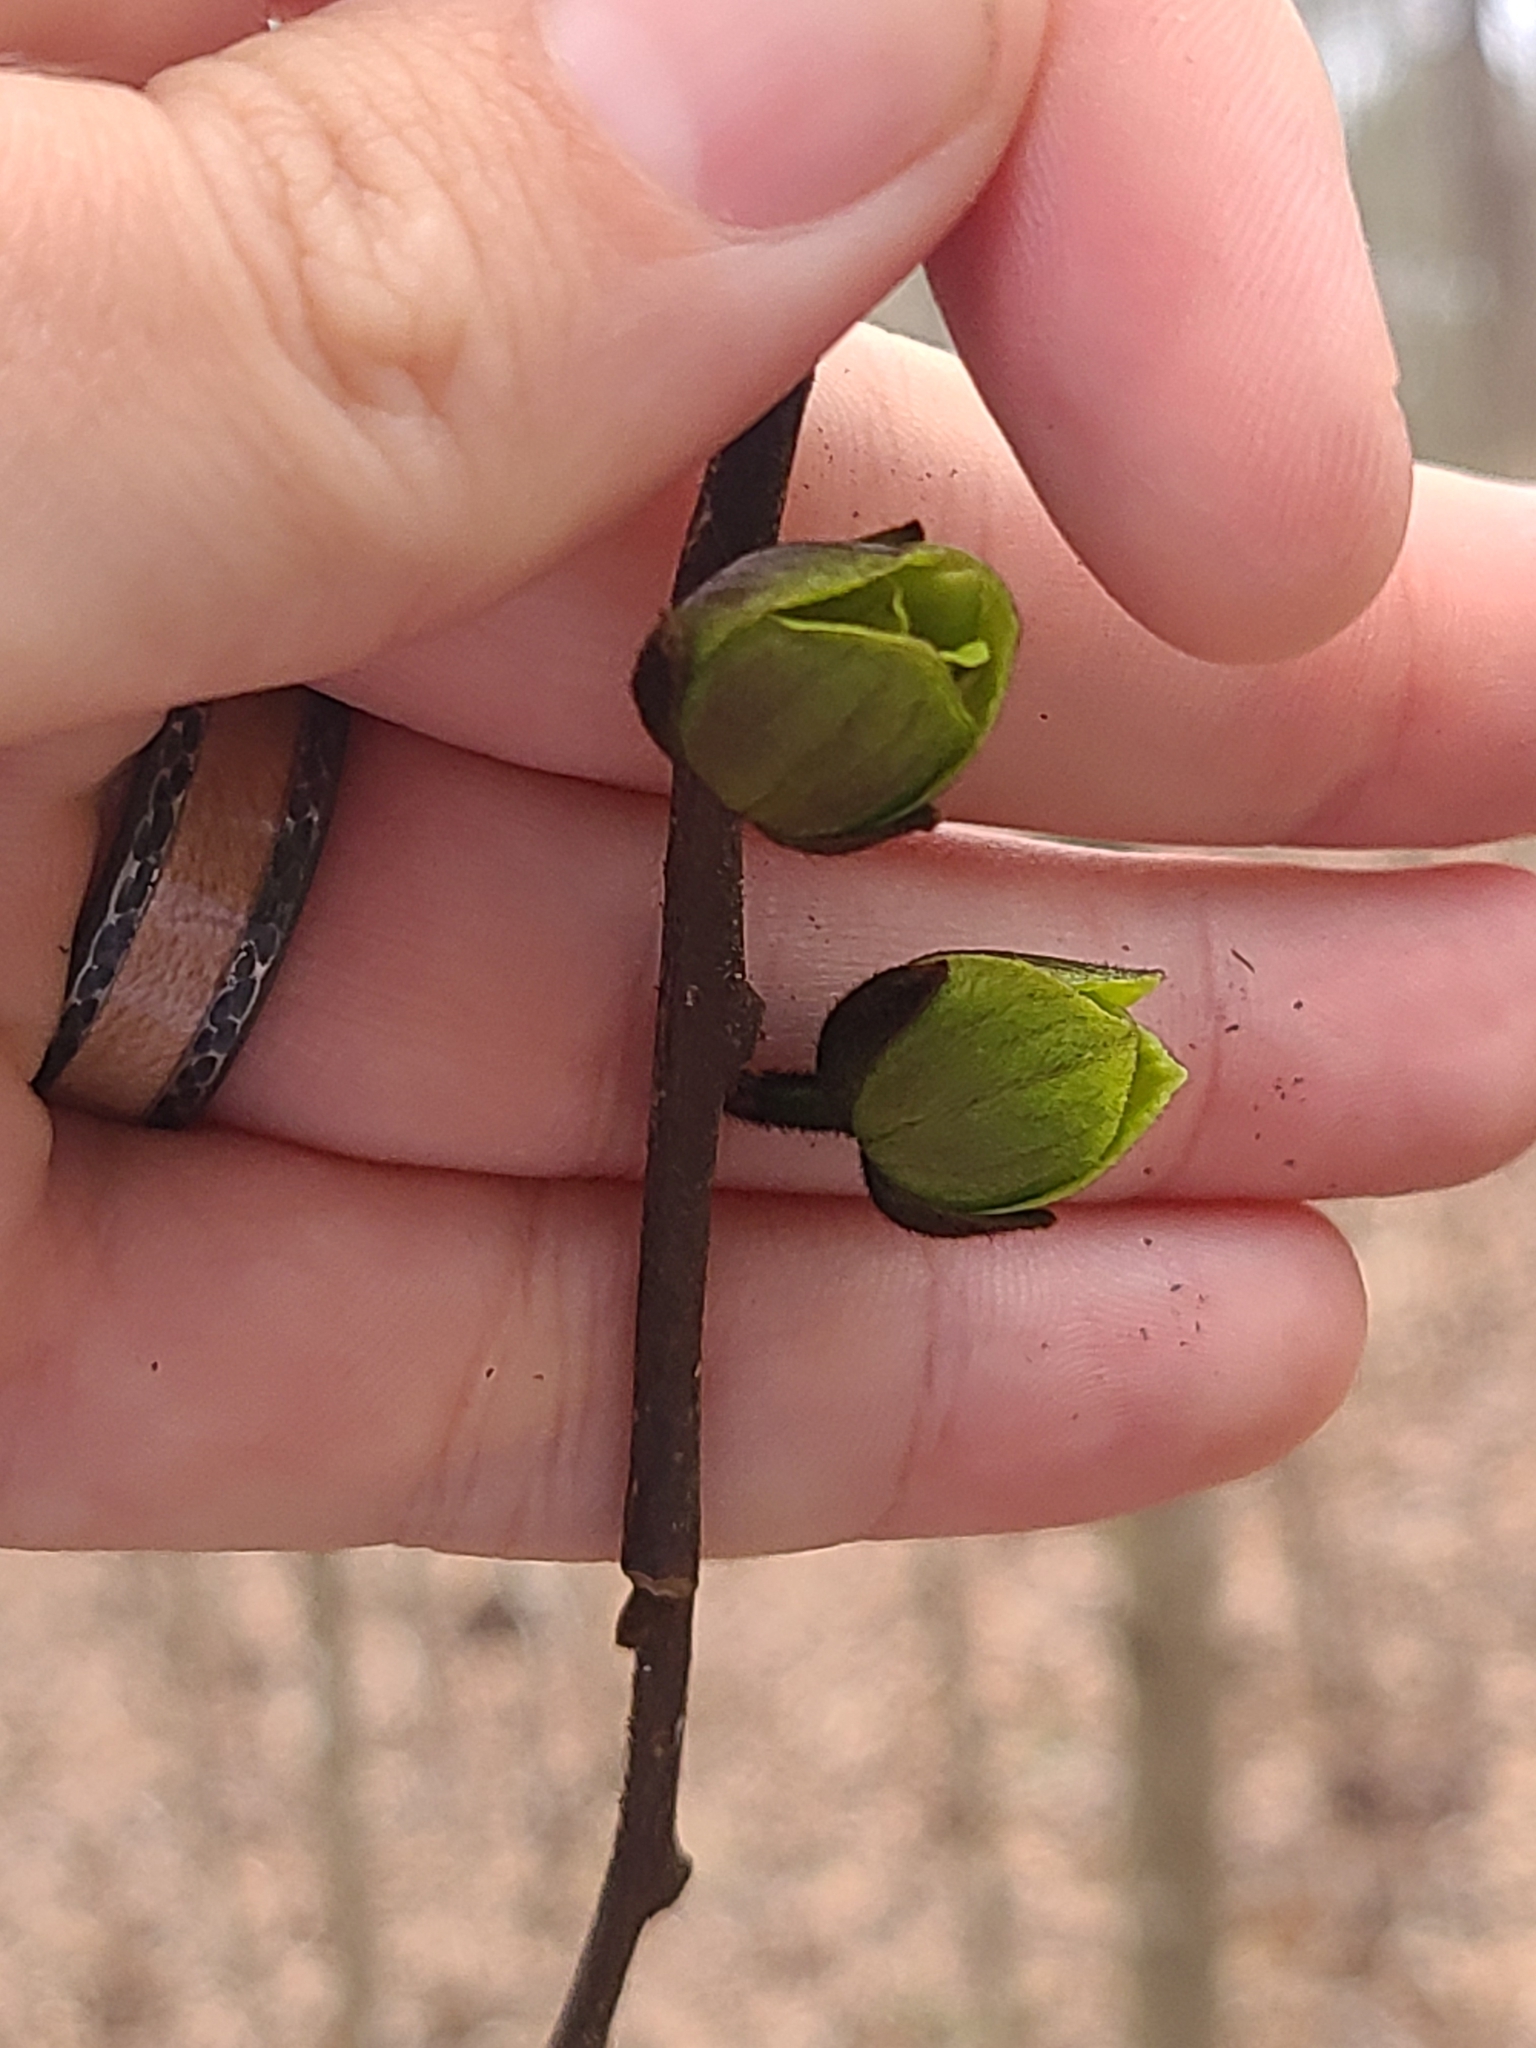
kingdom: Plantae
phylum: Tracheophyta
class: Magnoliopsida
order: Magnoliales
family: Annonaceae
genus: Asimina
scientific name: Asimina triloba
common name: Dog-banana
